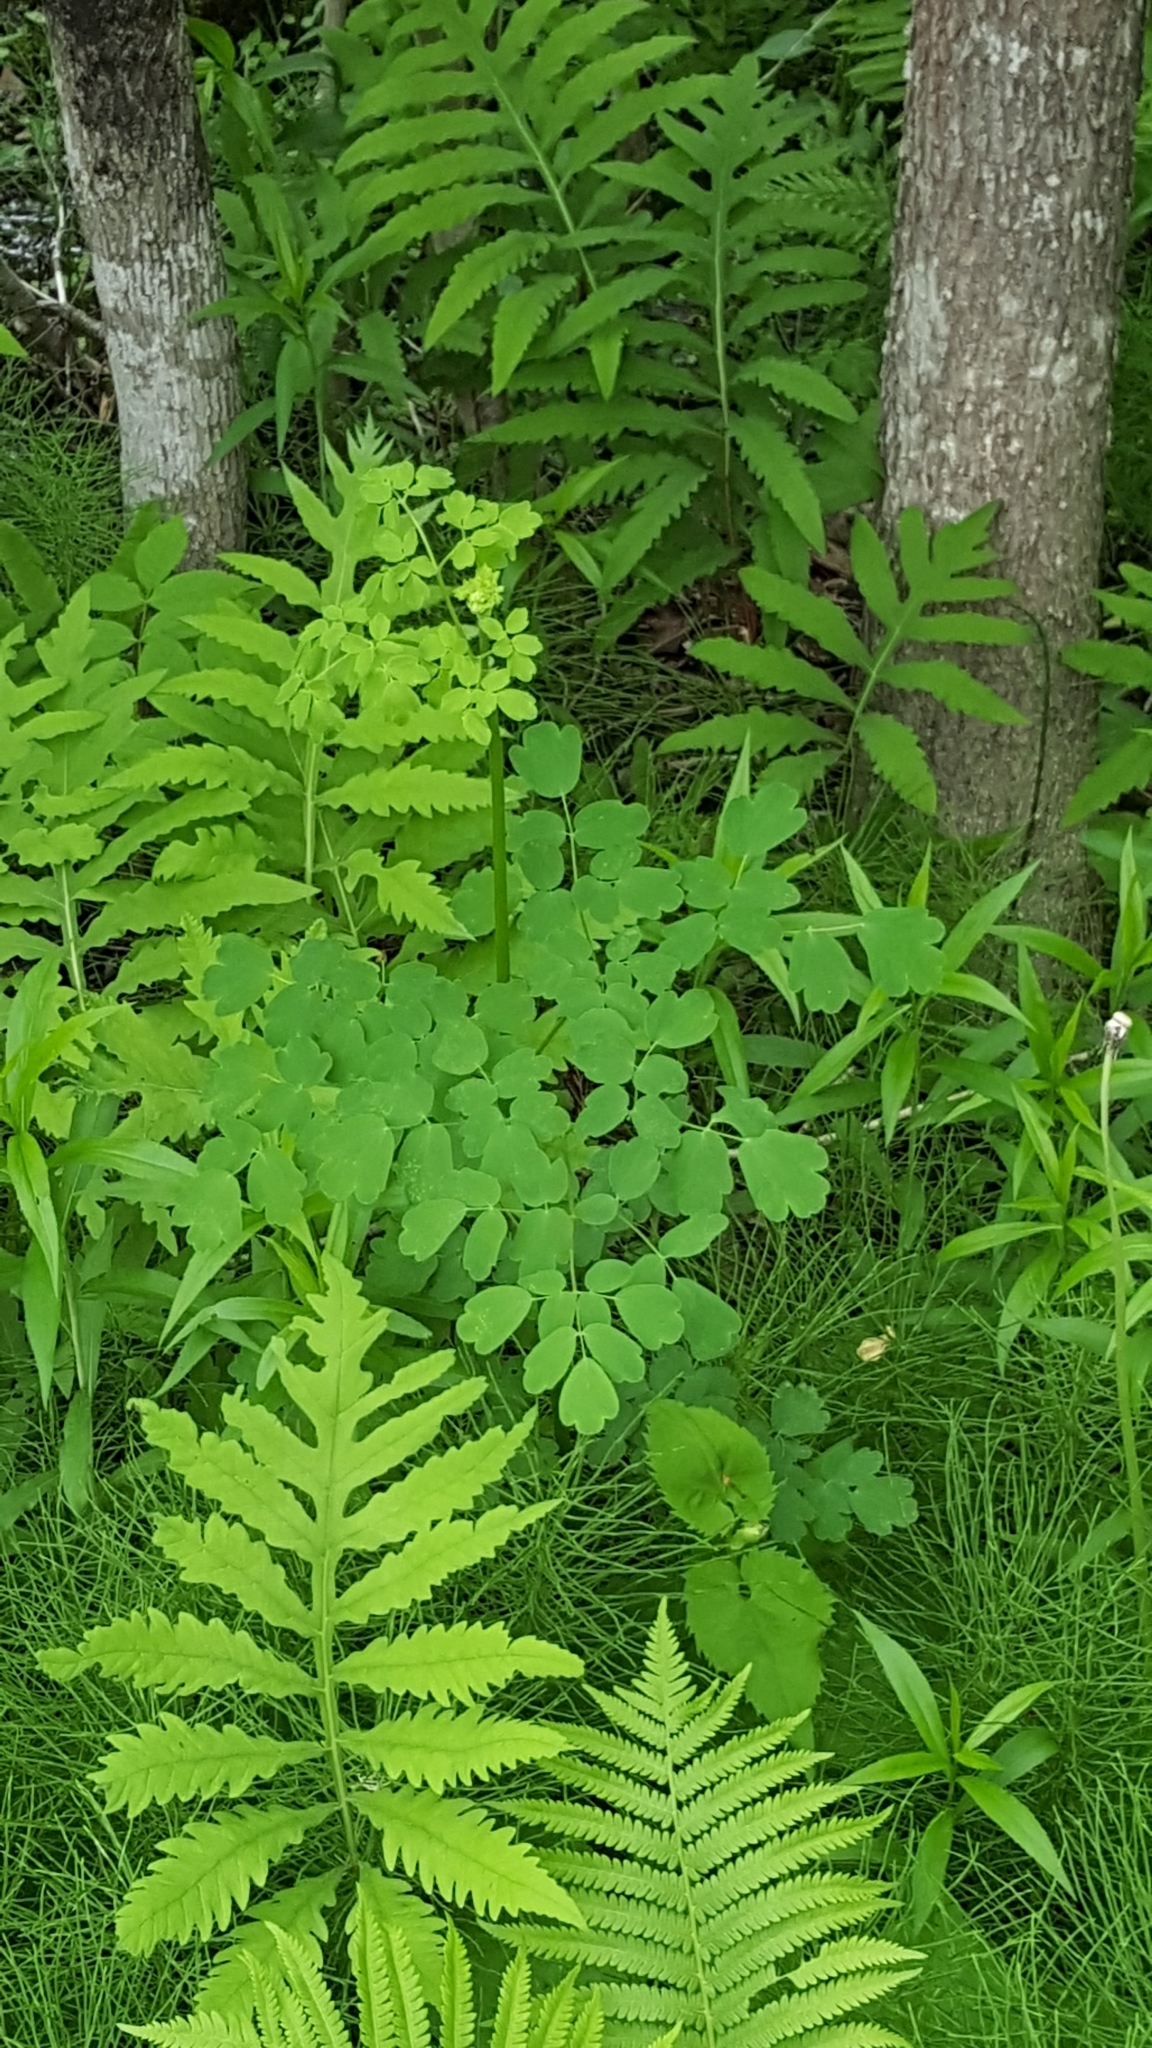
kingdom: Plantae
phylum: Tracheophyta
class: Magnoliopsida
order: Ranunculales
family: Ranunculaceae
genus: Thalictrum
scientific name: Thalictrum pubescens
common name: King-of-the-meadow
